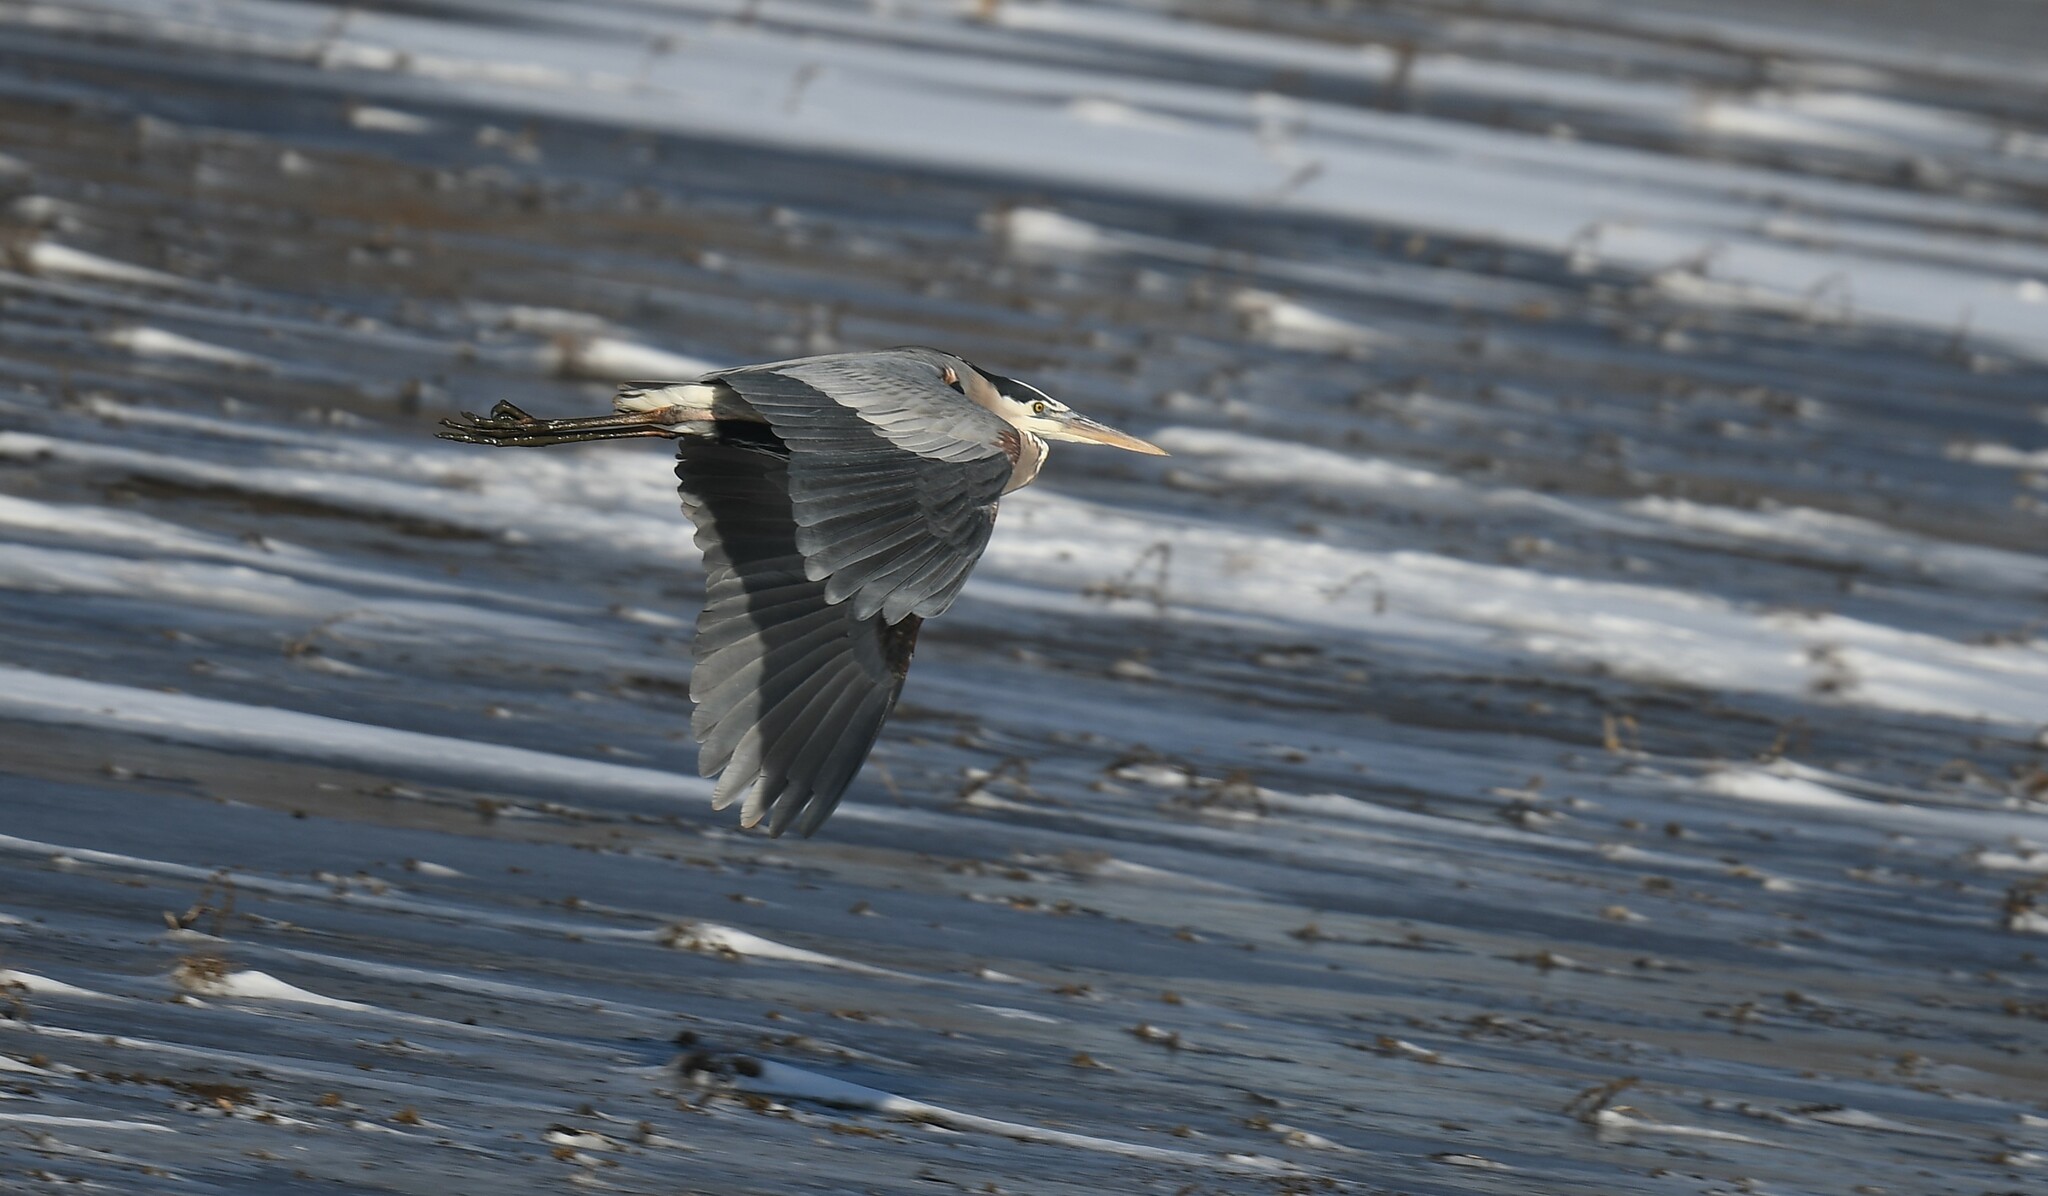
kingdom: Animalia
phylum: Chordata
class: Aves
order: Pelecaniformes
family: Ardeidae
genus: Ardea
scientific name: Ardea herodias
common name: Great blue heron
